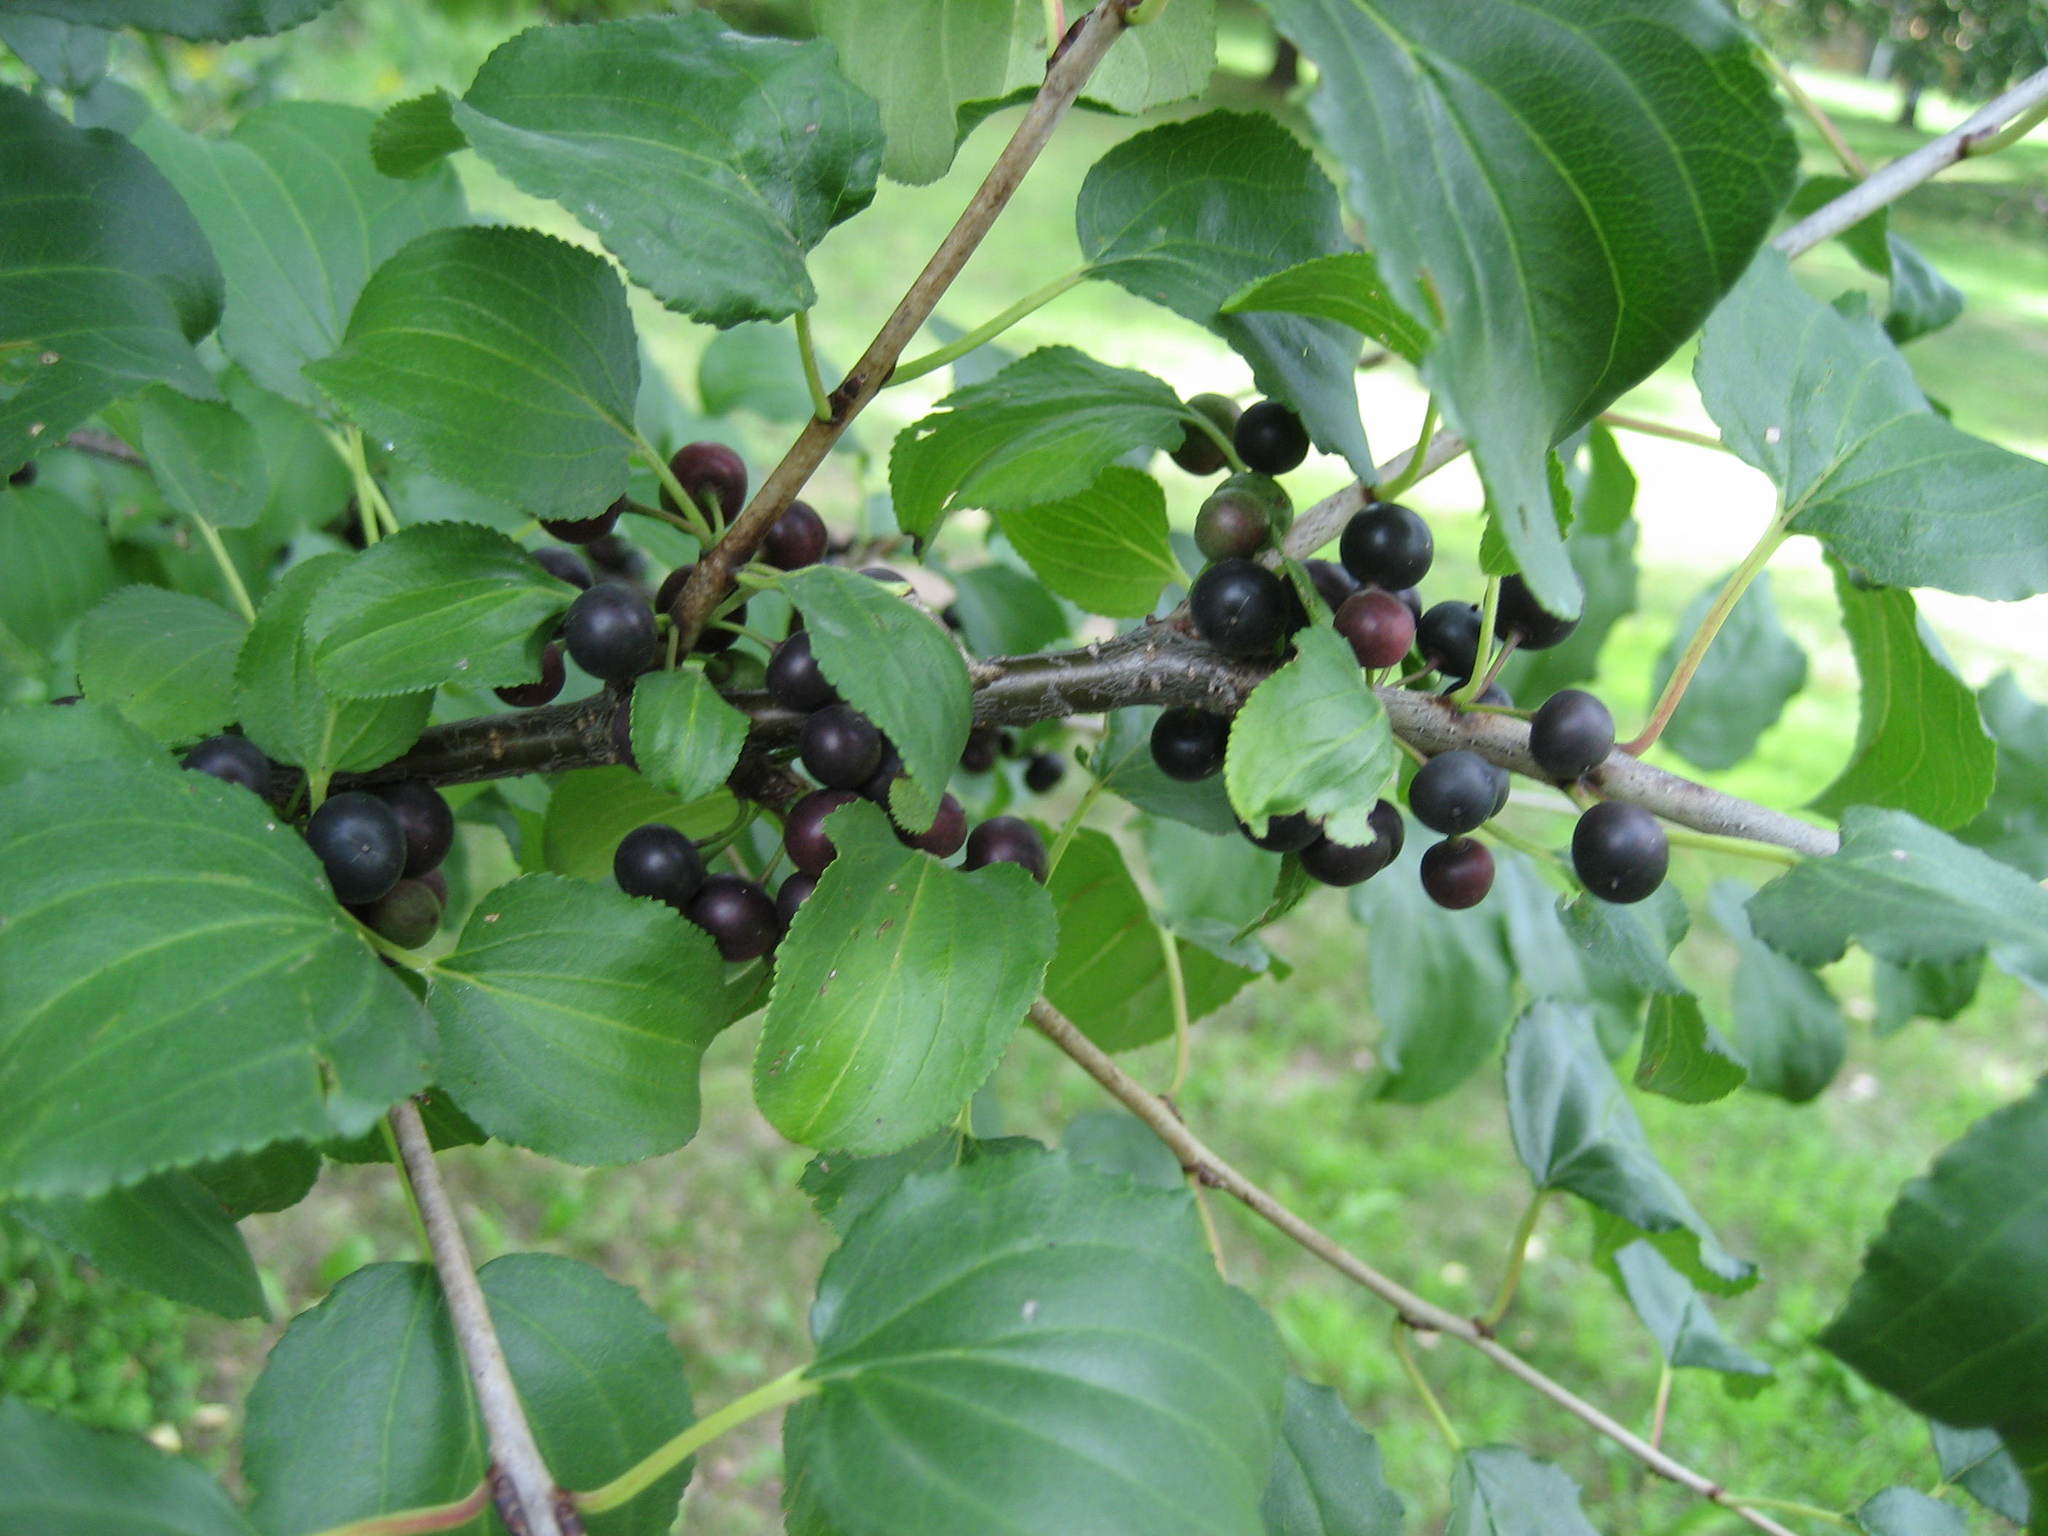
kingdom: Plantae
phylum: Tracheophyta
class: Magnoliopsida
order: Rosales
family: Rhamnaceae
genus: Rhamnus
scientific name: Rhamnus cathartica
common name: Common buckthorn
